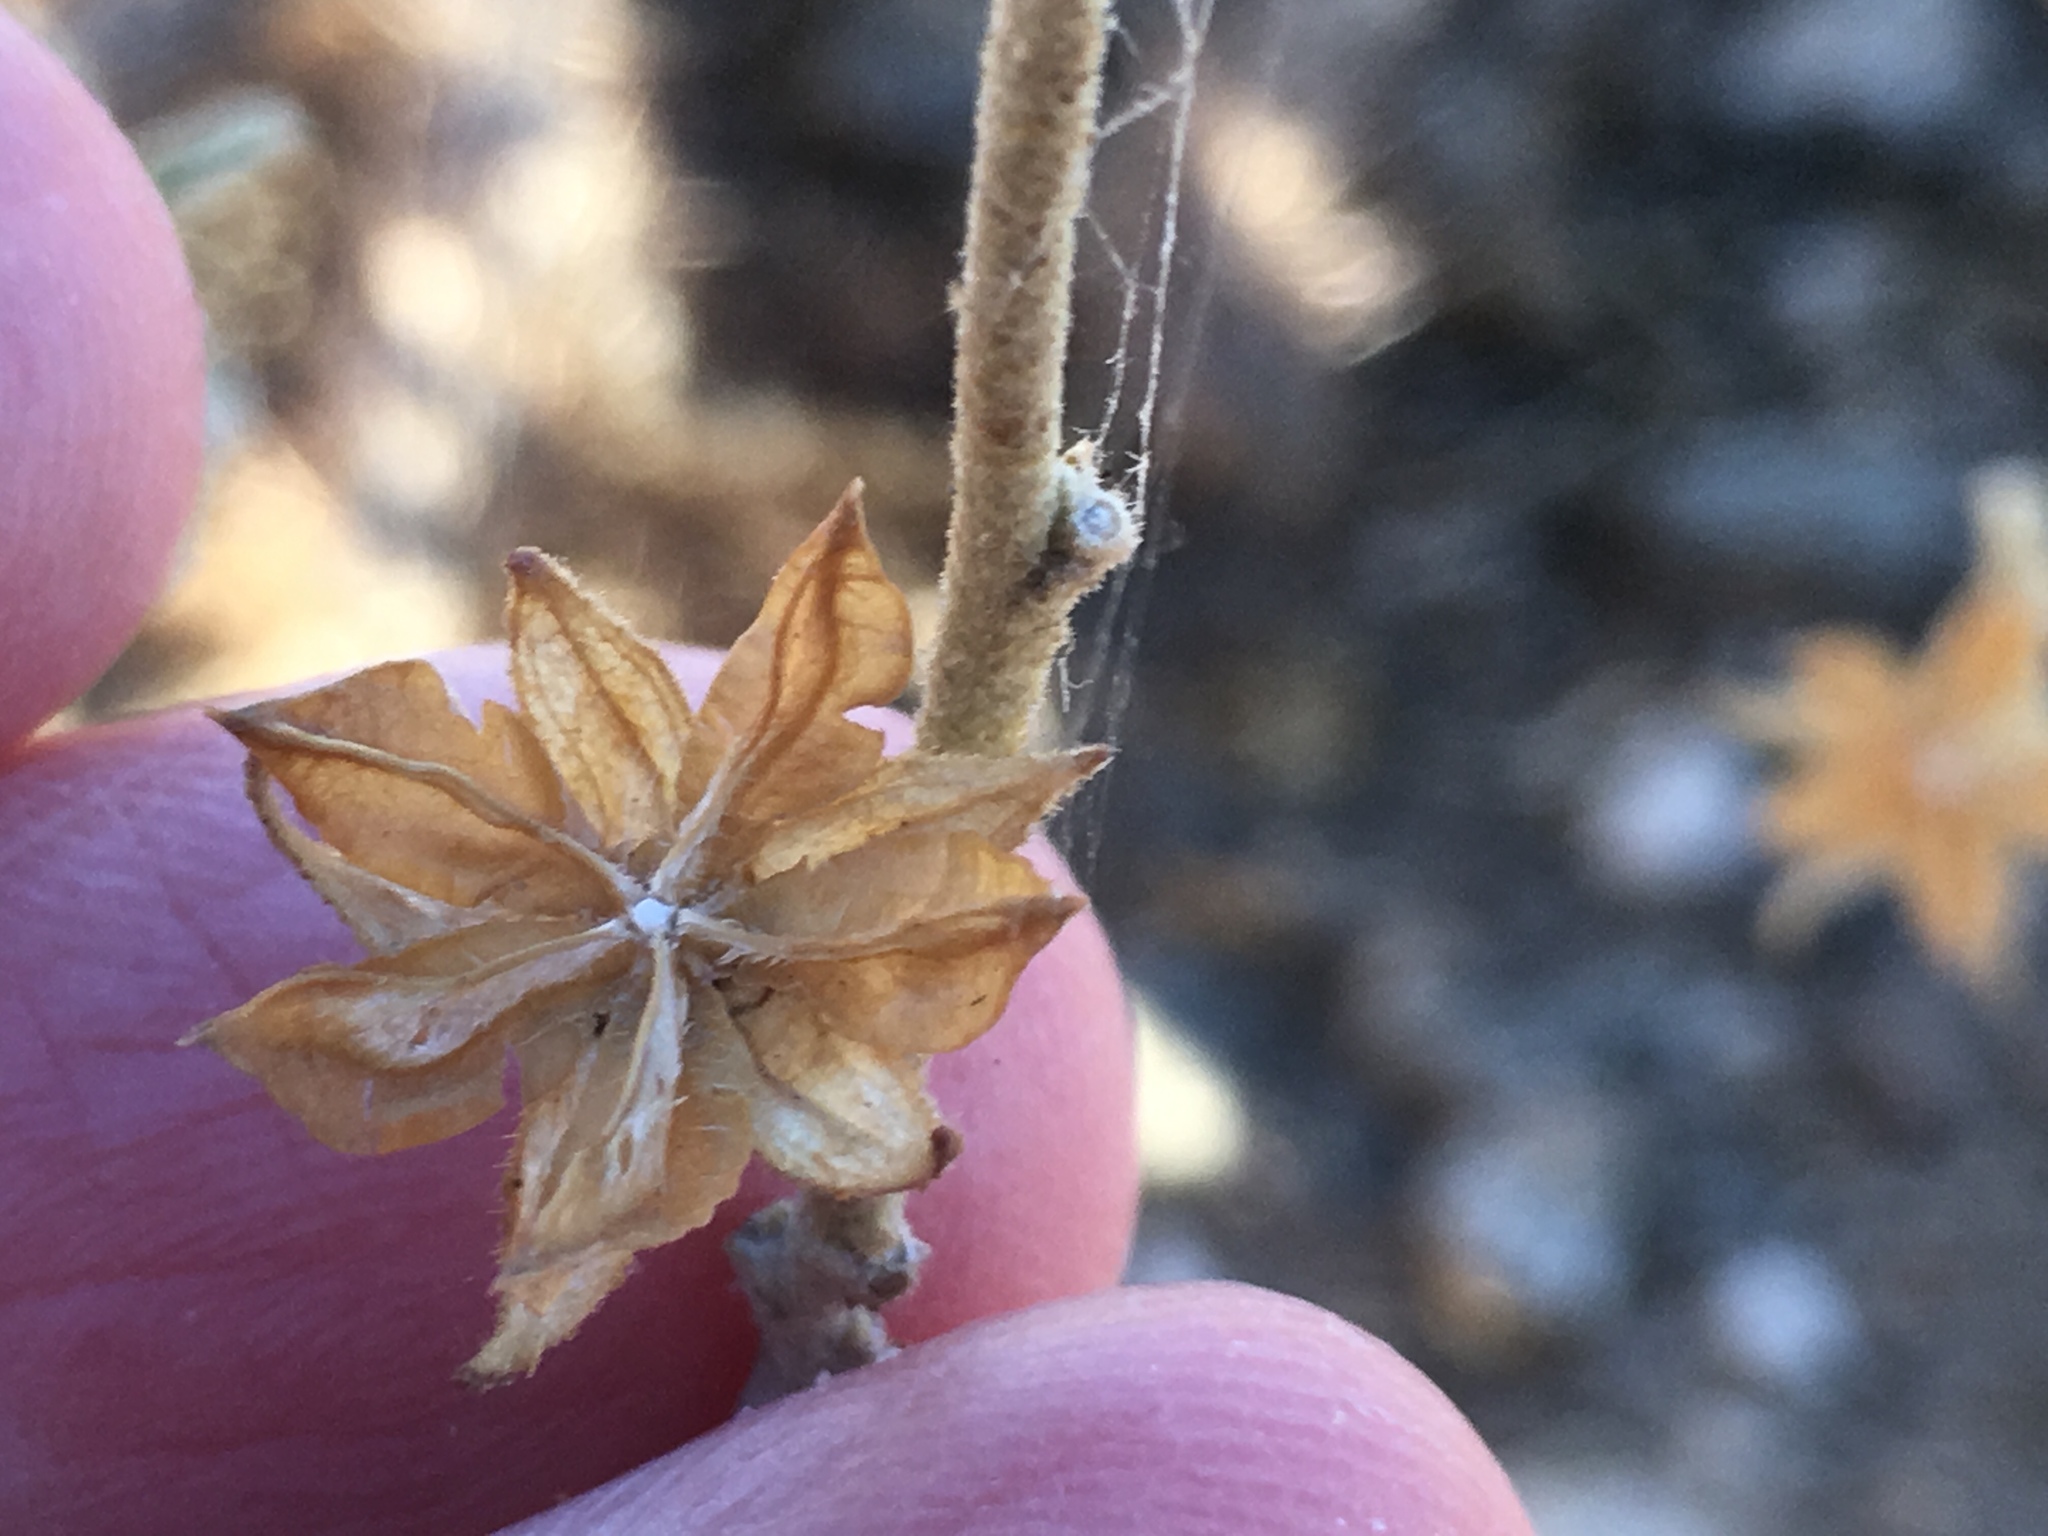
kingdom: Plantae
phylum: Tracheophyta
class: Magnoliopsida
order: Malvales
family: Malvaceae
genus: Hibiscus
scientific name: Hibiscus denudatus
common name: Paleface
